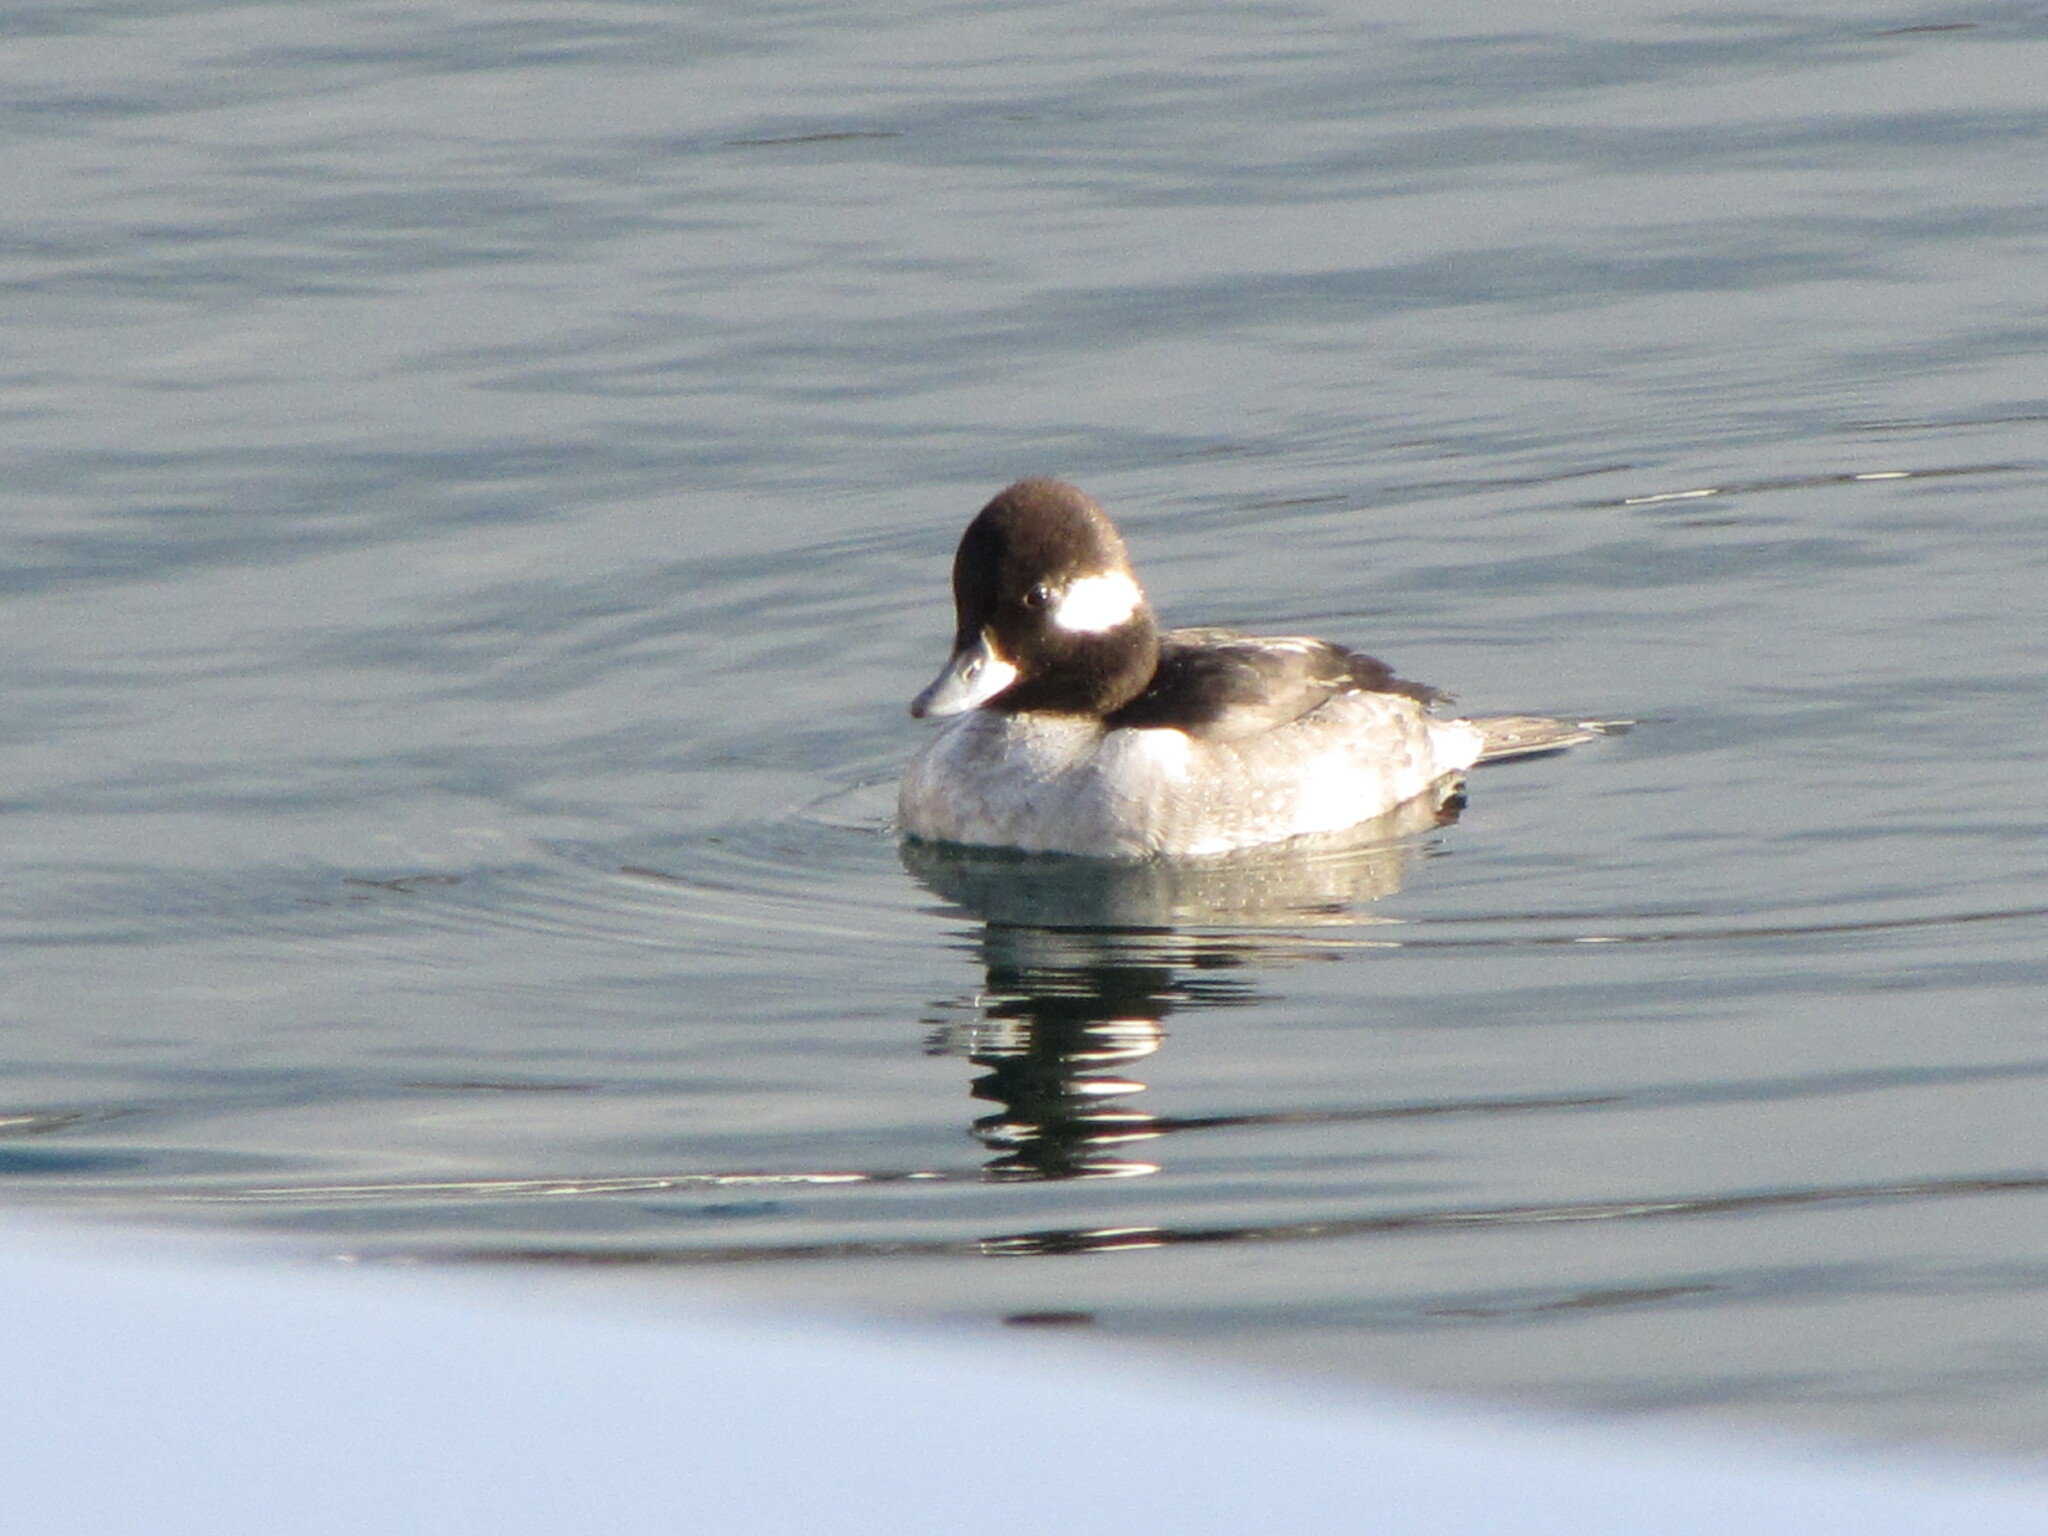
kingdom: Animalia
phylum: Chordata
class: Aves
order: Anseriformes
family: Anatidae
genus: Bucephala
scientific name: Bucephala albeola
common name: Bufflehead
